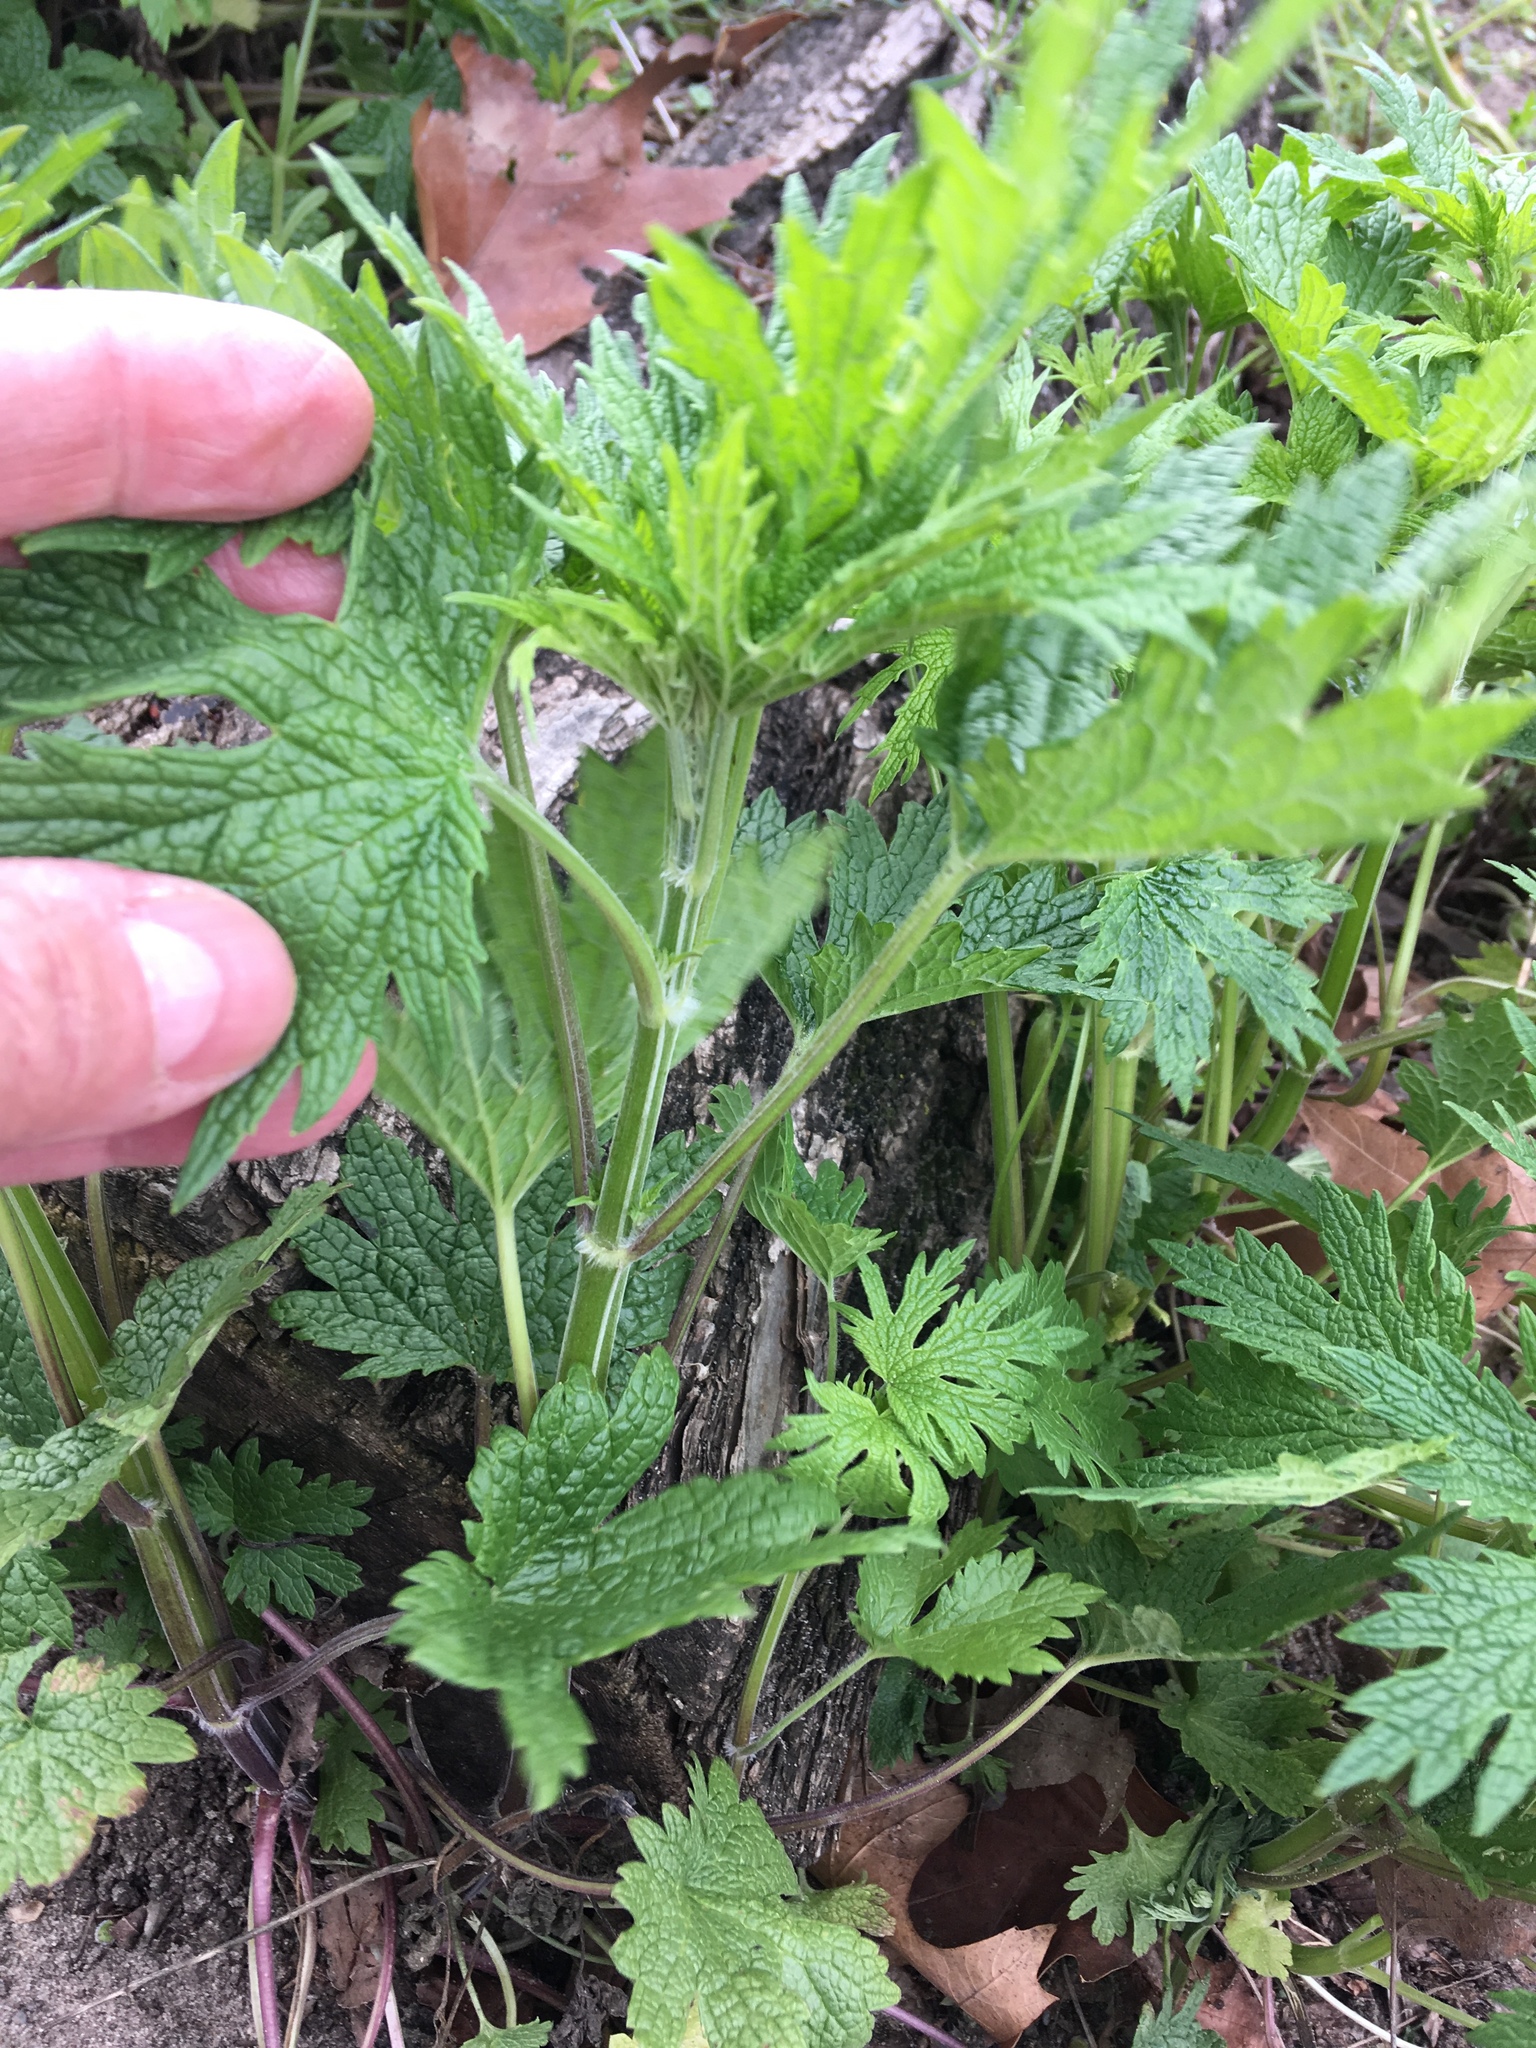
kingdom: Plantae
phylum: Tracheophyta
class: Magnoliopsida
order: Lamiales
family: Lamiaceae
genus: Leonurus
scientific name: Leonurus cardiaca
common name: Motherwort
